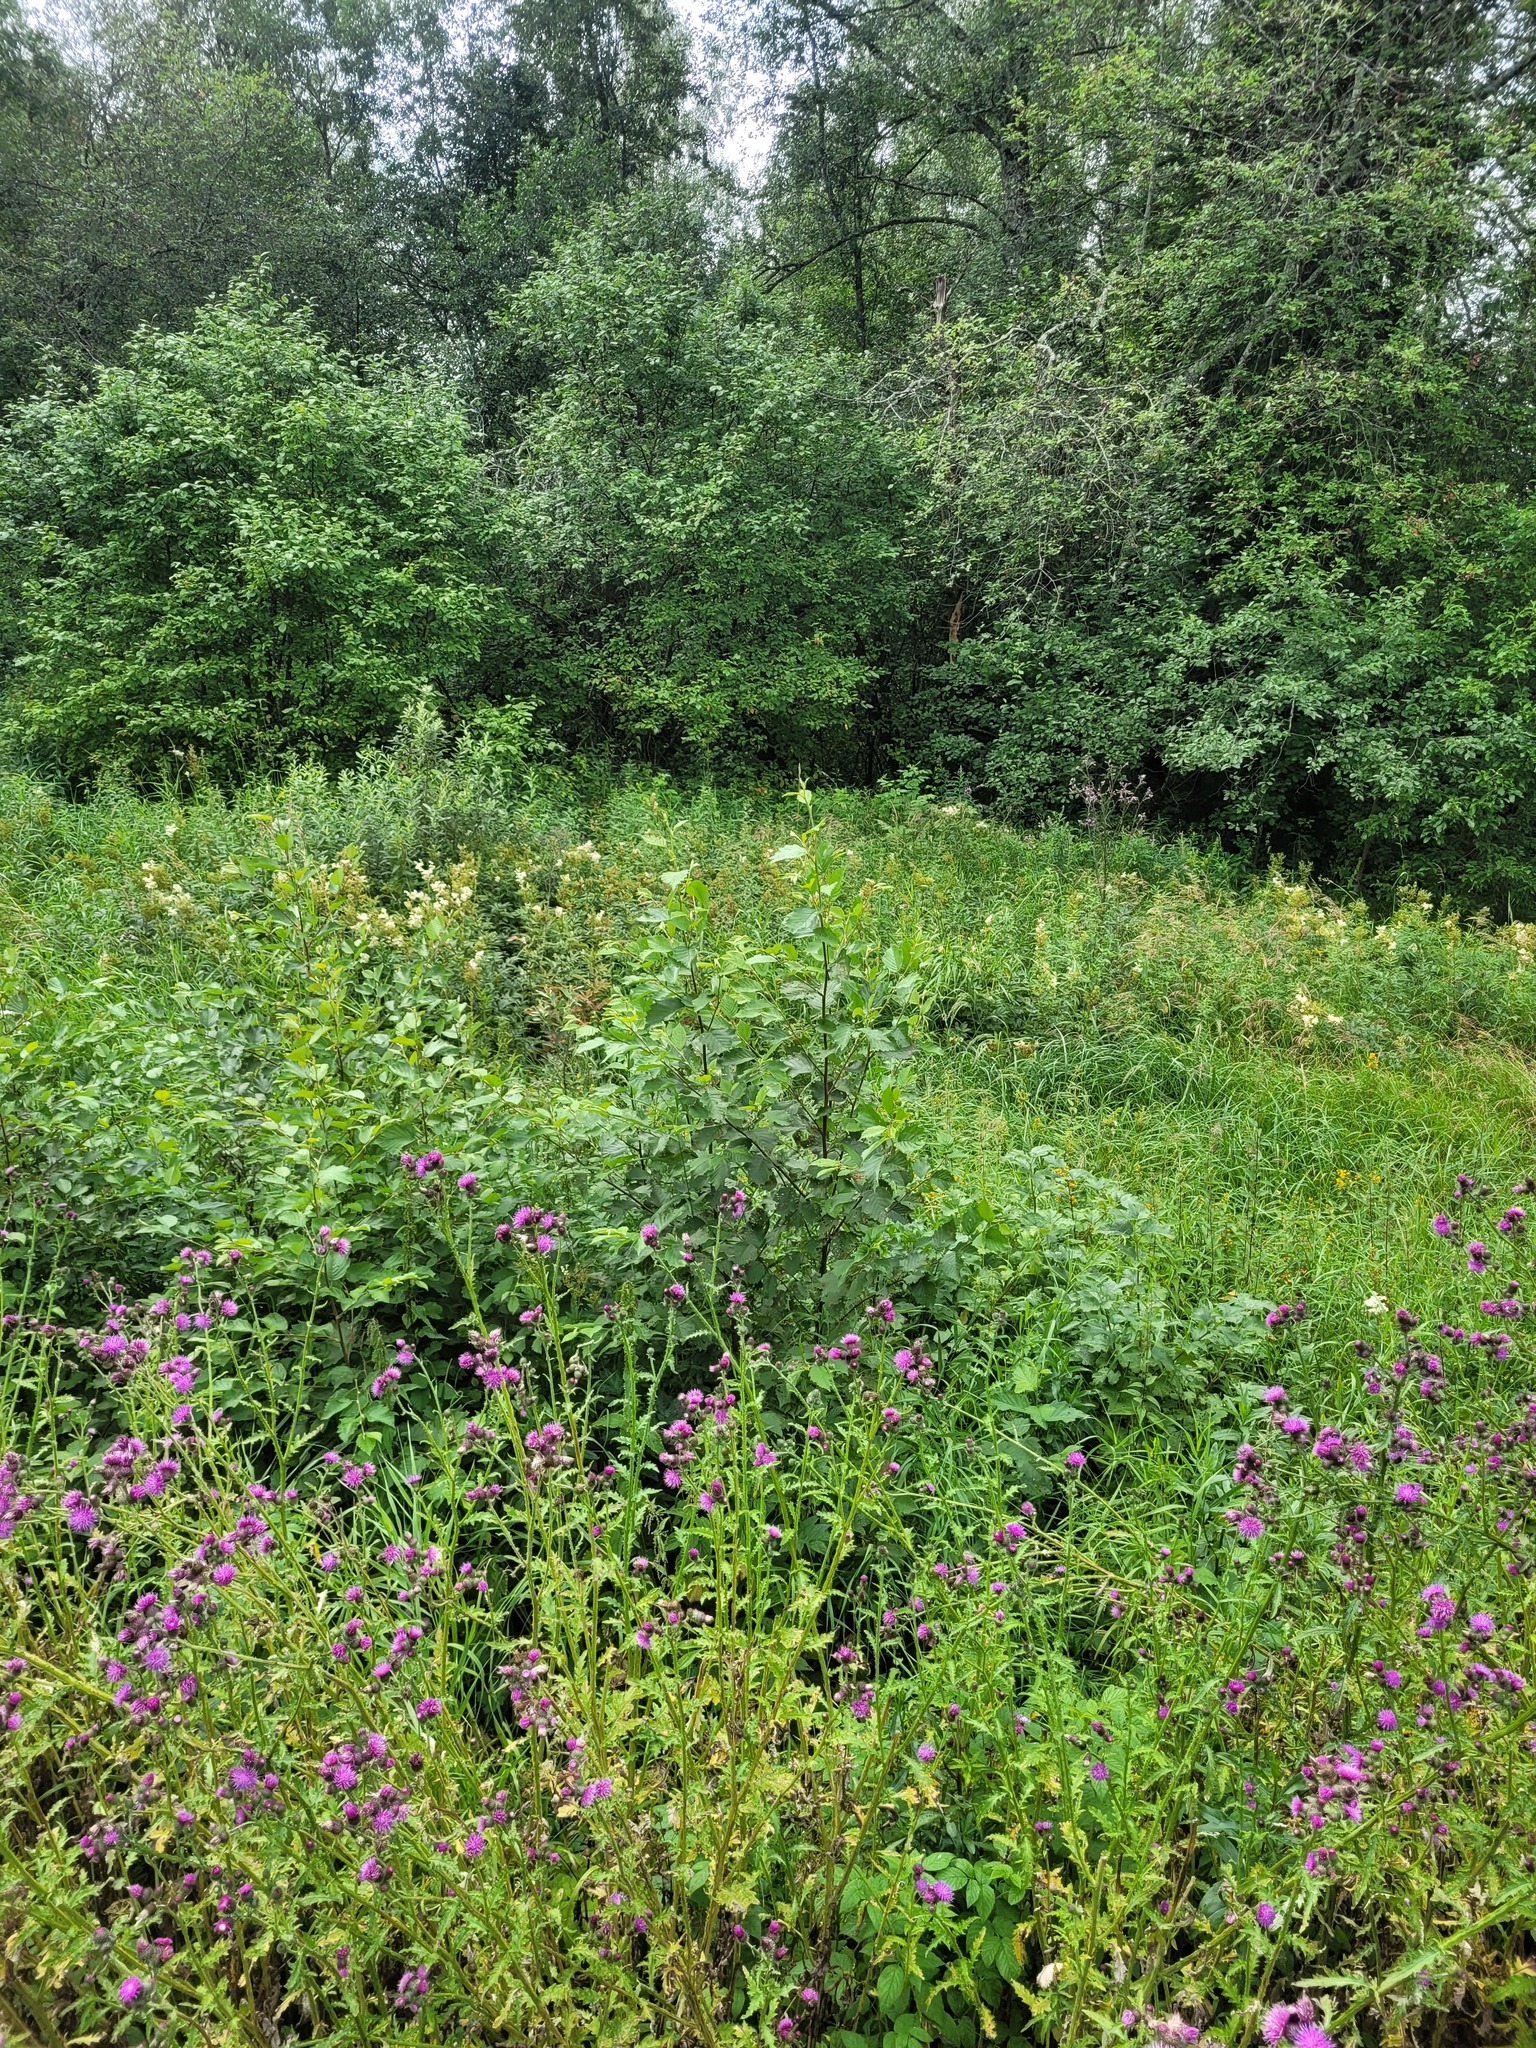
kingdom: Plantae
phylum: Tracheophyta
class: Magnoliopsida
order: Fagales
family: Betulaceae
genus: Alnus
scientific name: Alnus incana
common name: Grey alder
